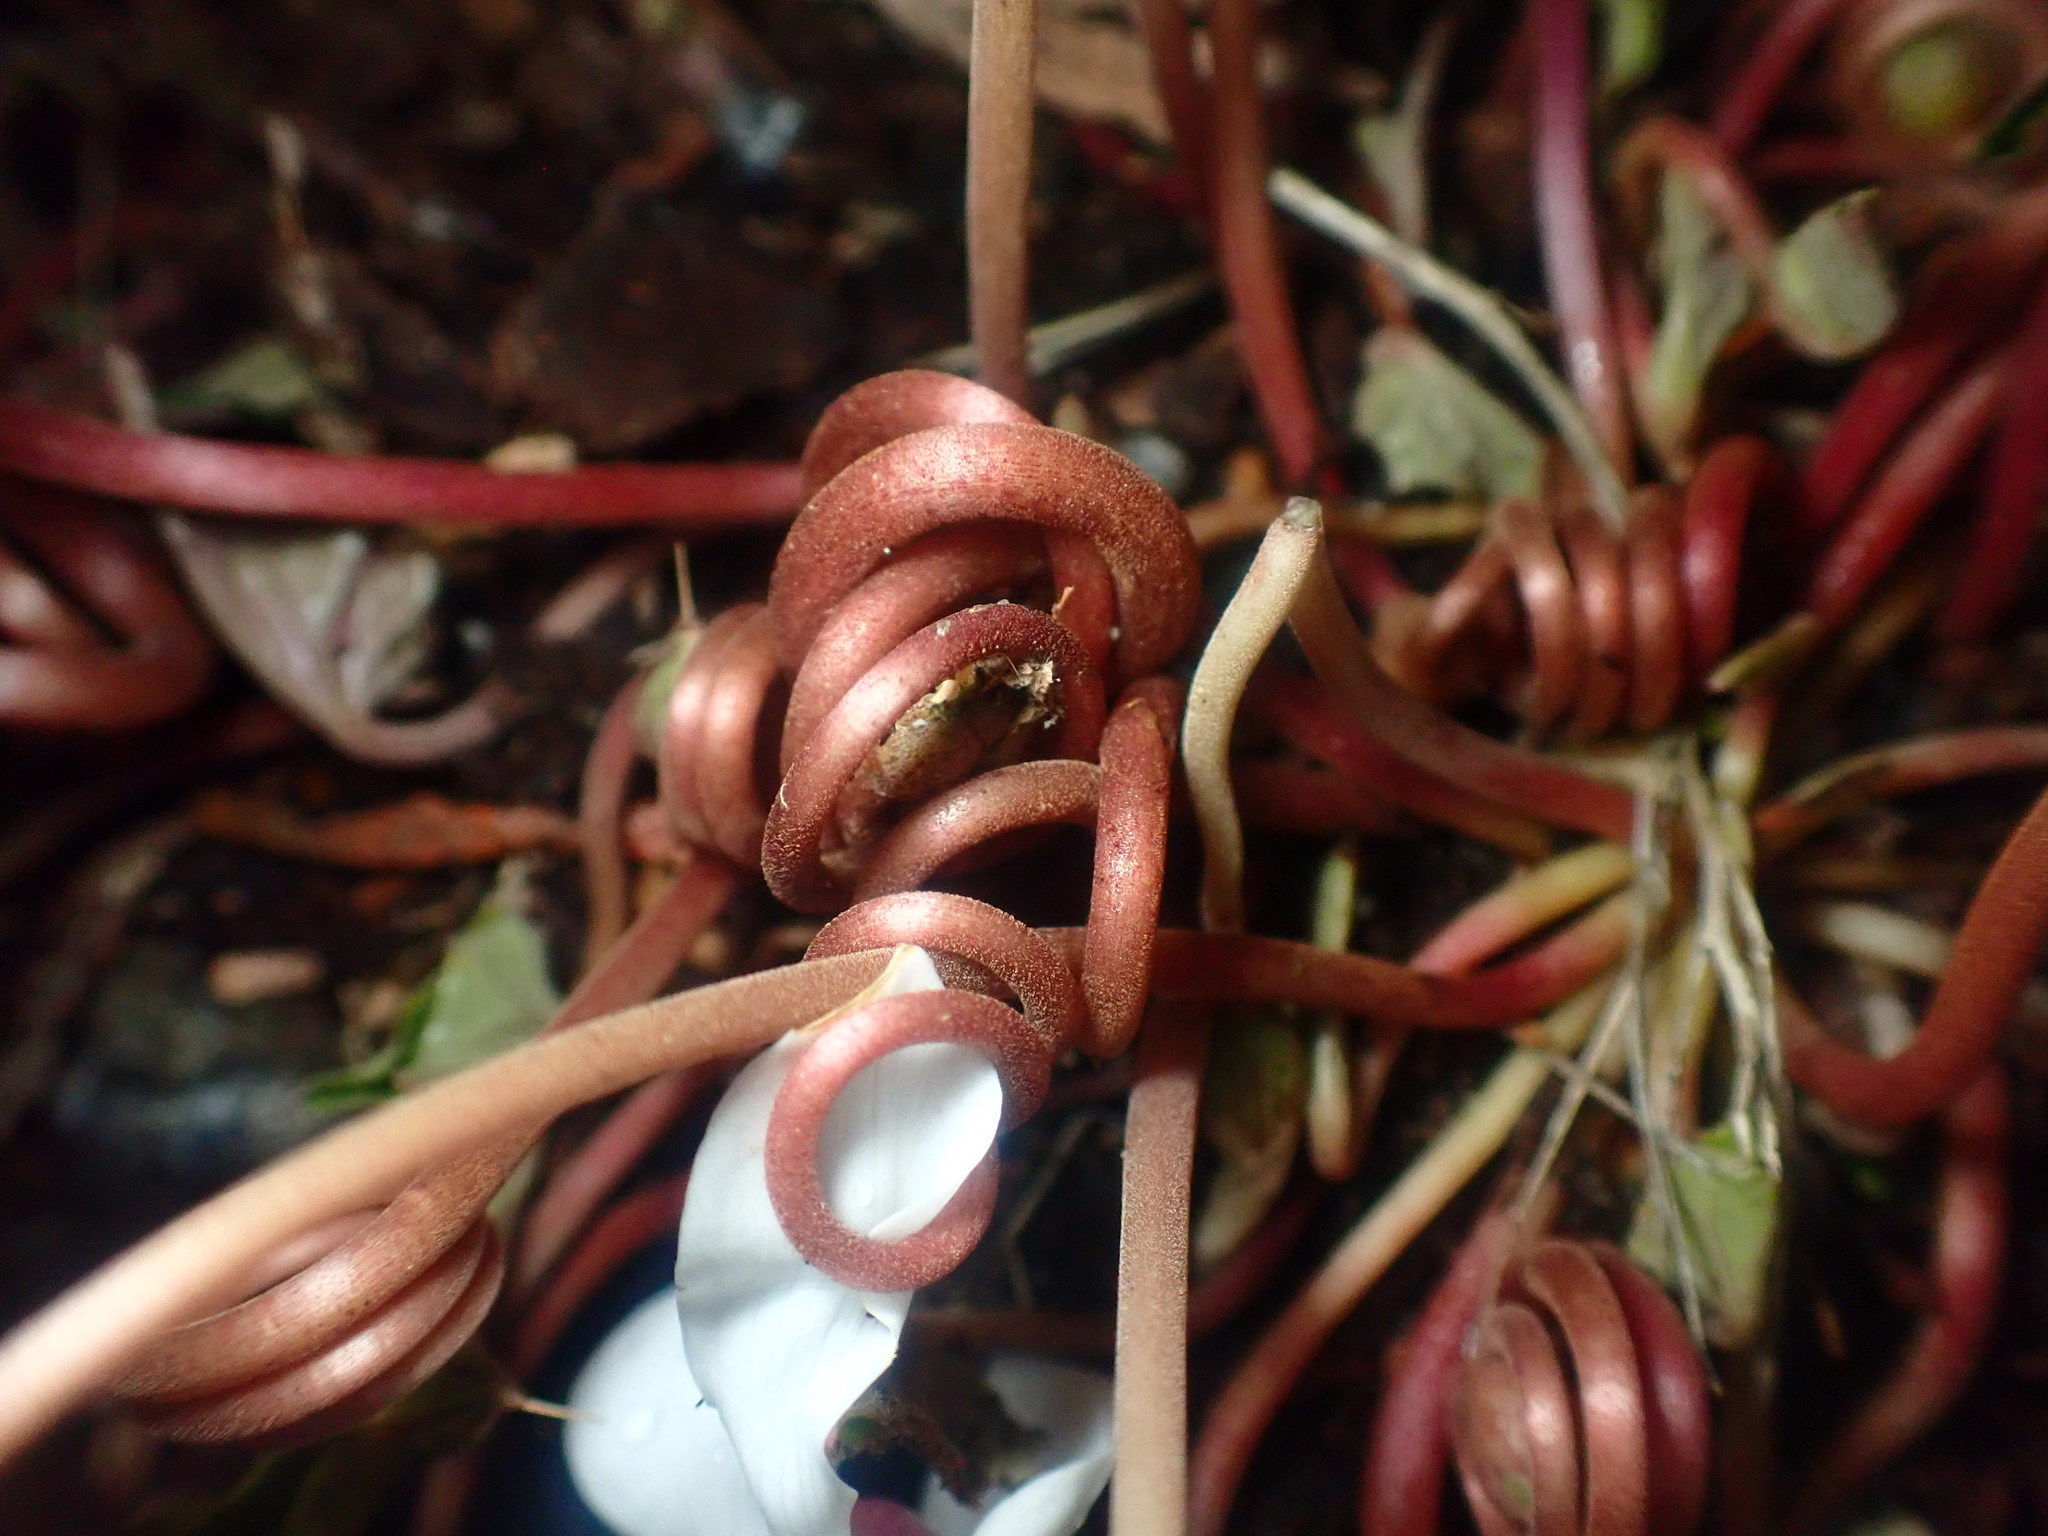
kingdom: Plantae
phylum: Tracheophyta
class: Magnoliopsida
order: Ericales
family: Primulaceae
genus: Cyclamen
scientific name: Cyclamen hederifolium
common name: Sowbread
